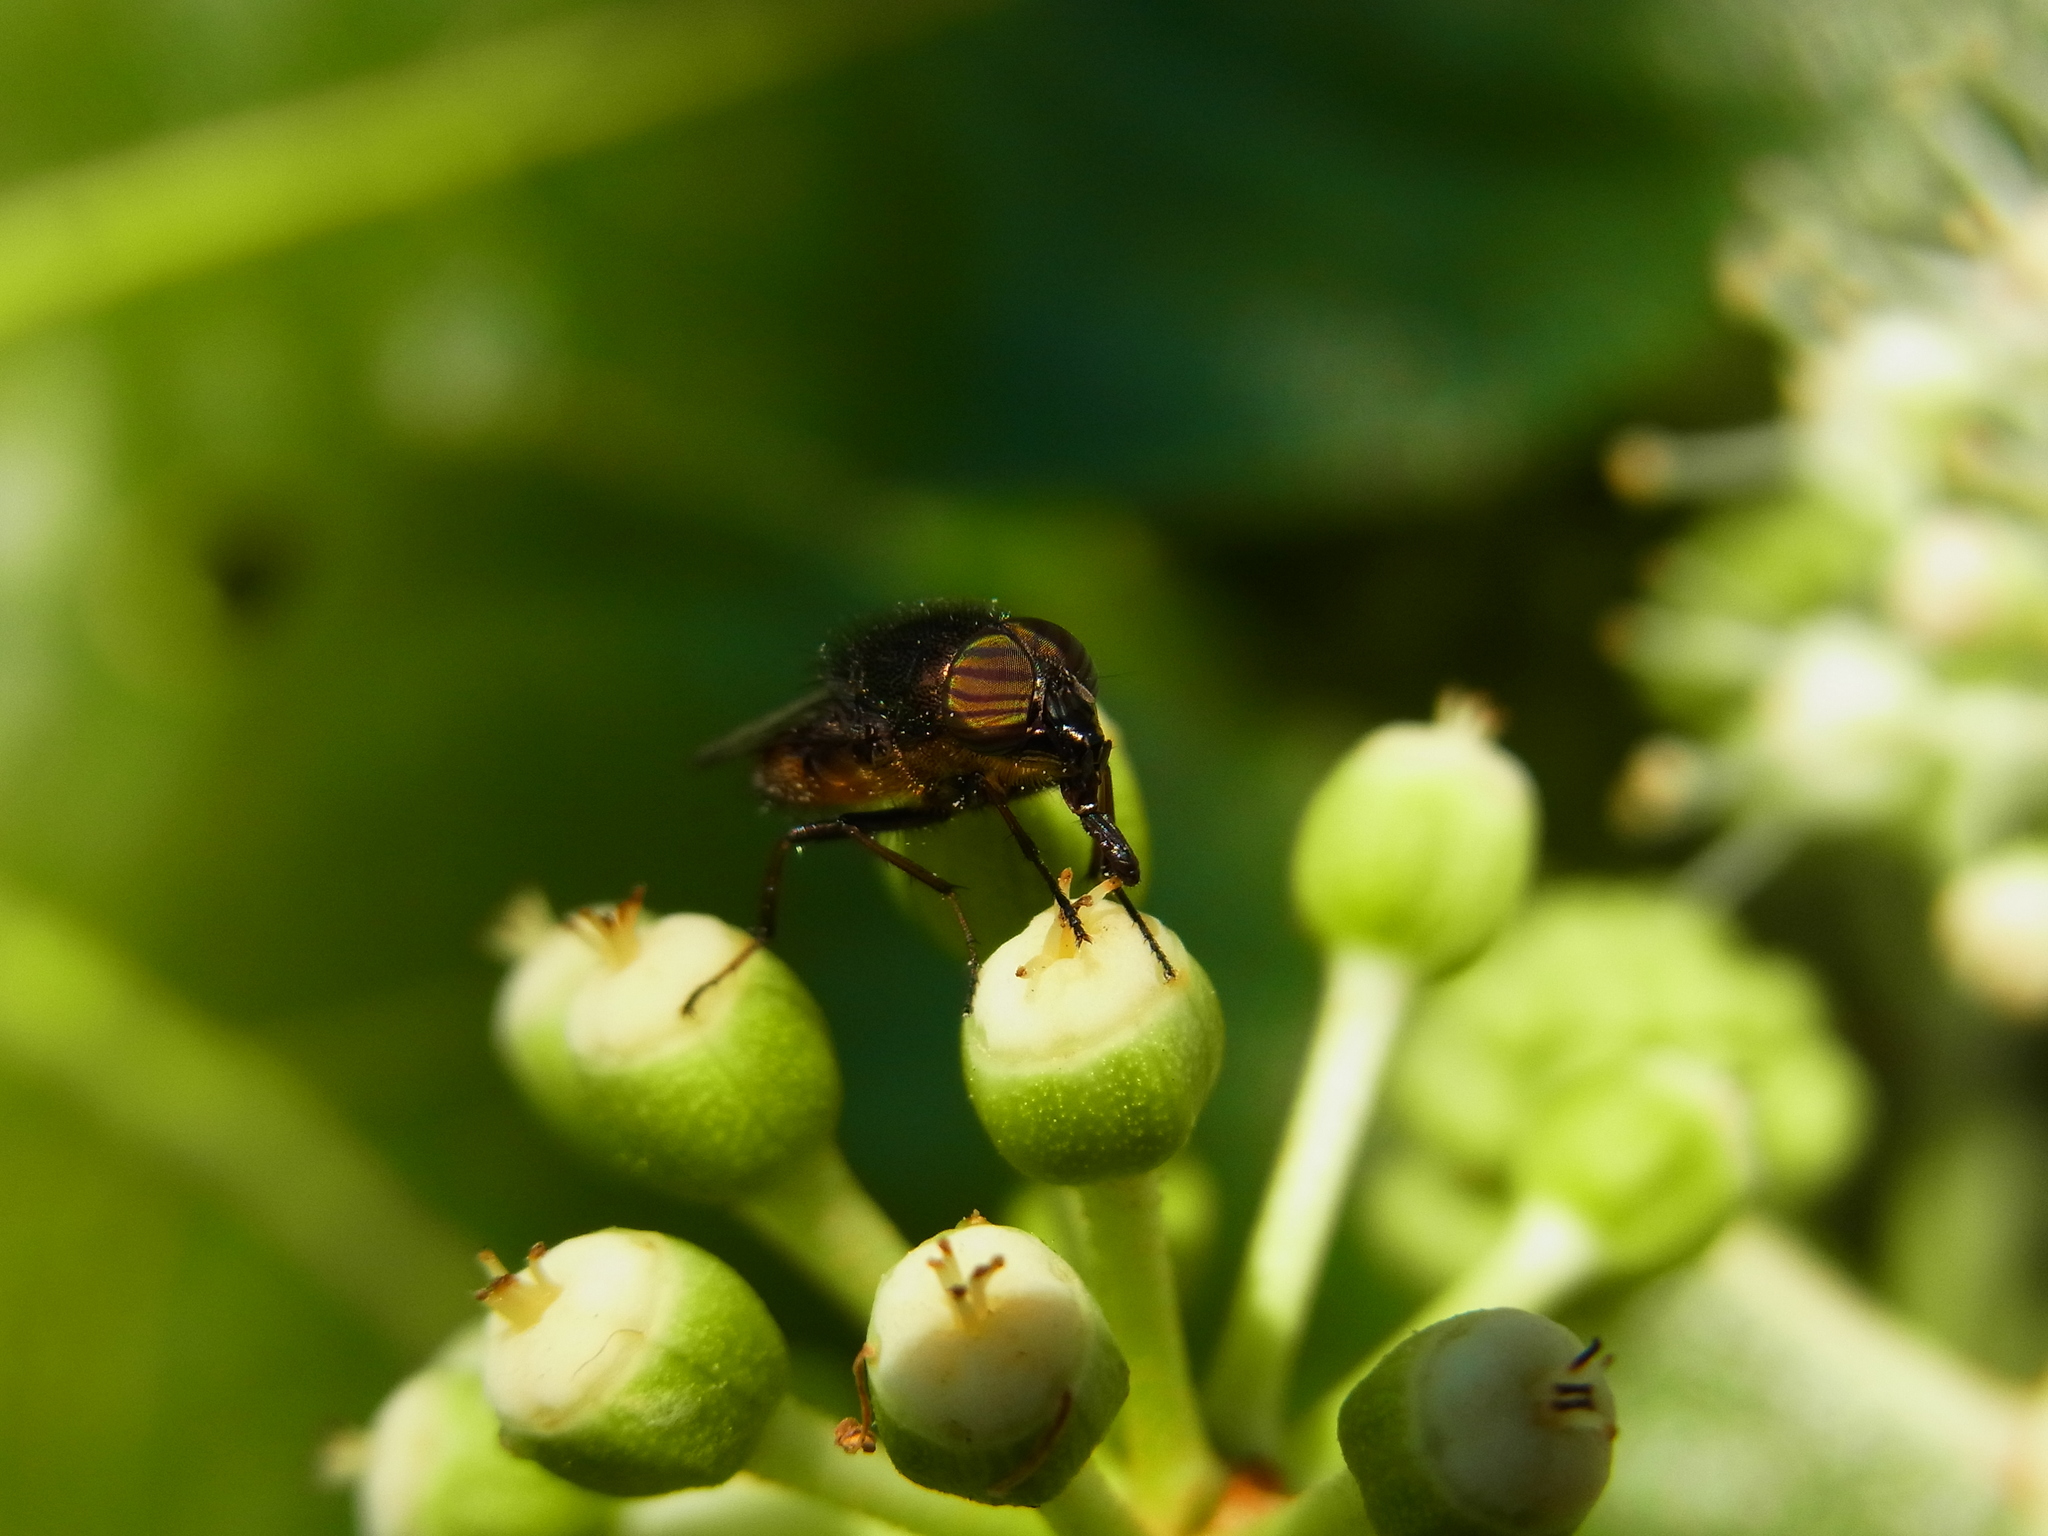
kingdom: Animalia
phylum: Arthropoda
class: Insecta
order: Diptera
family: Calliphoridae
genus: Rhinia
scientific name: Rhinia obsoleta
